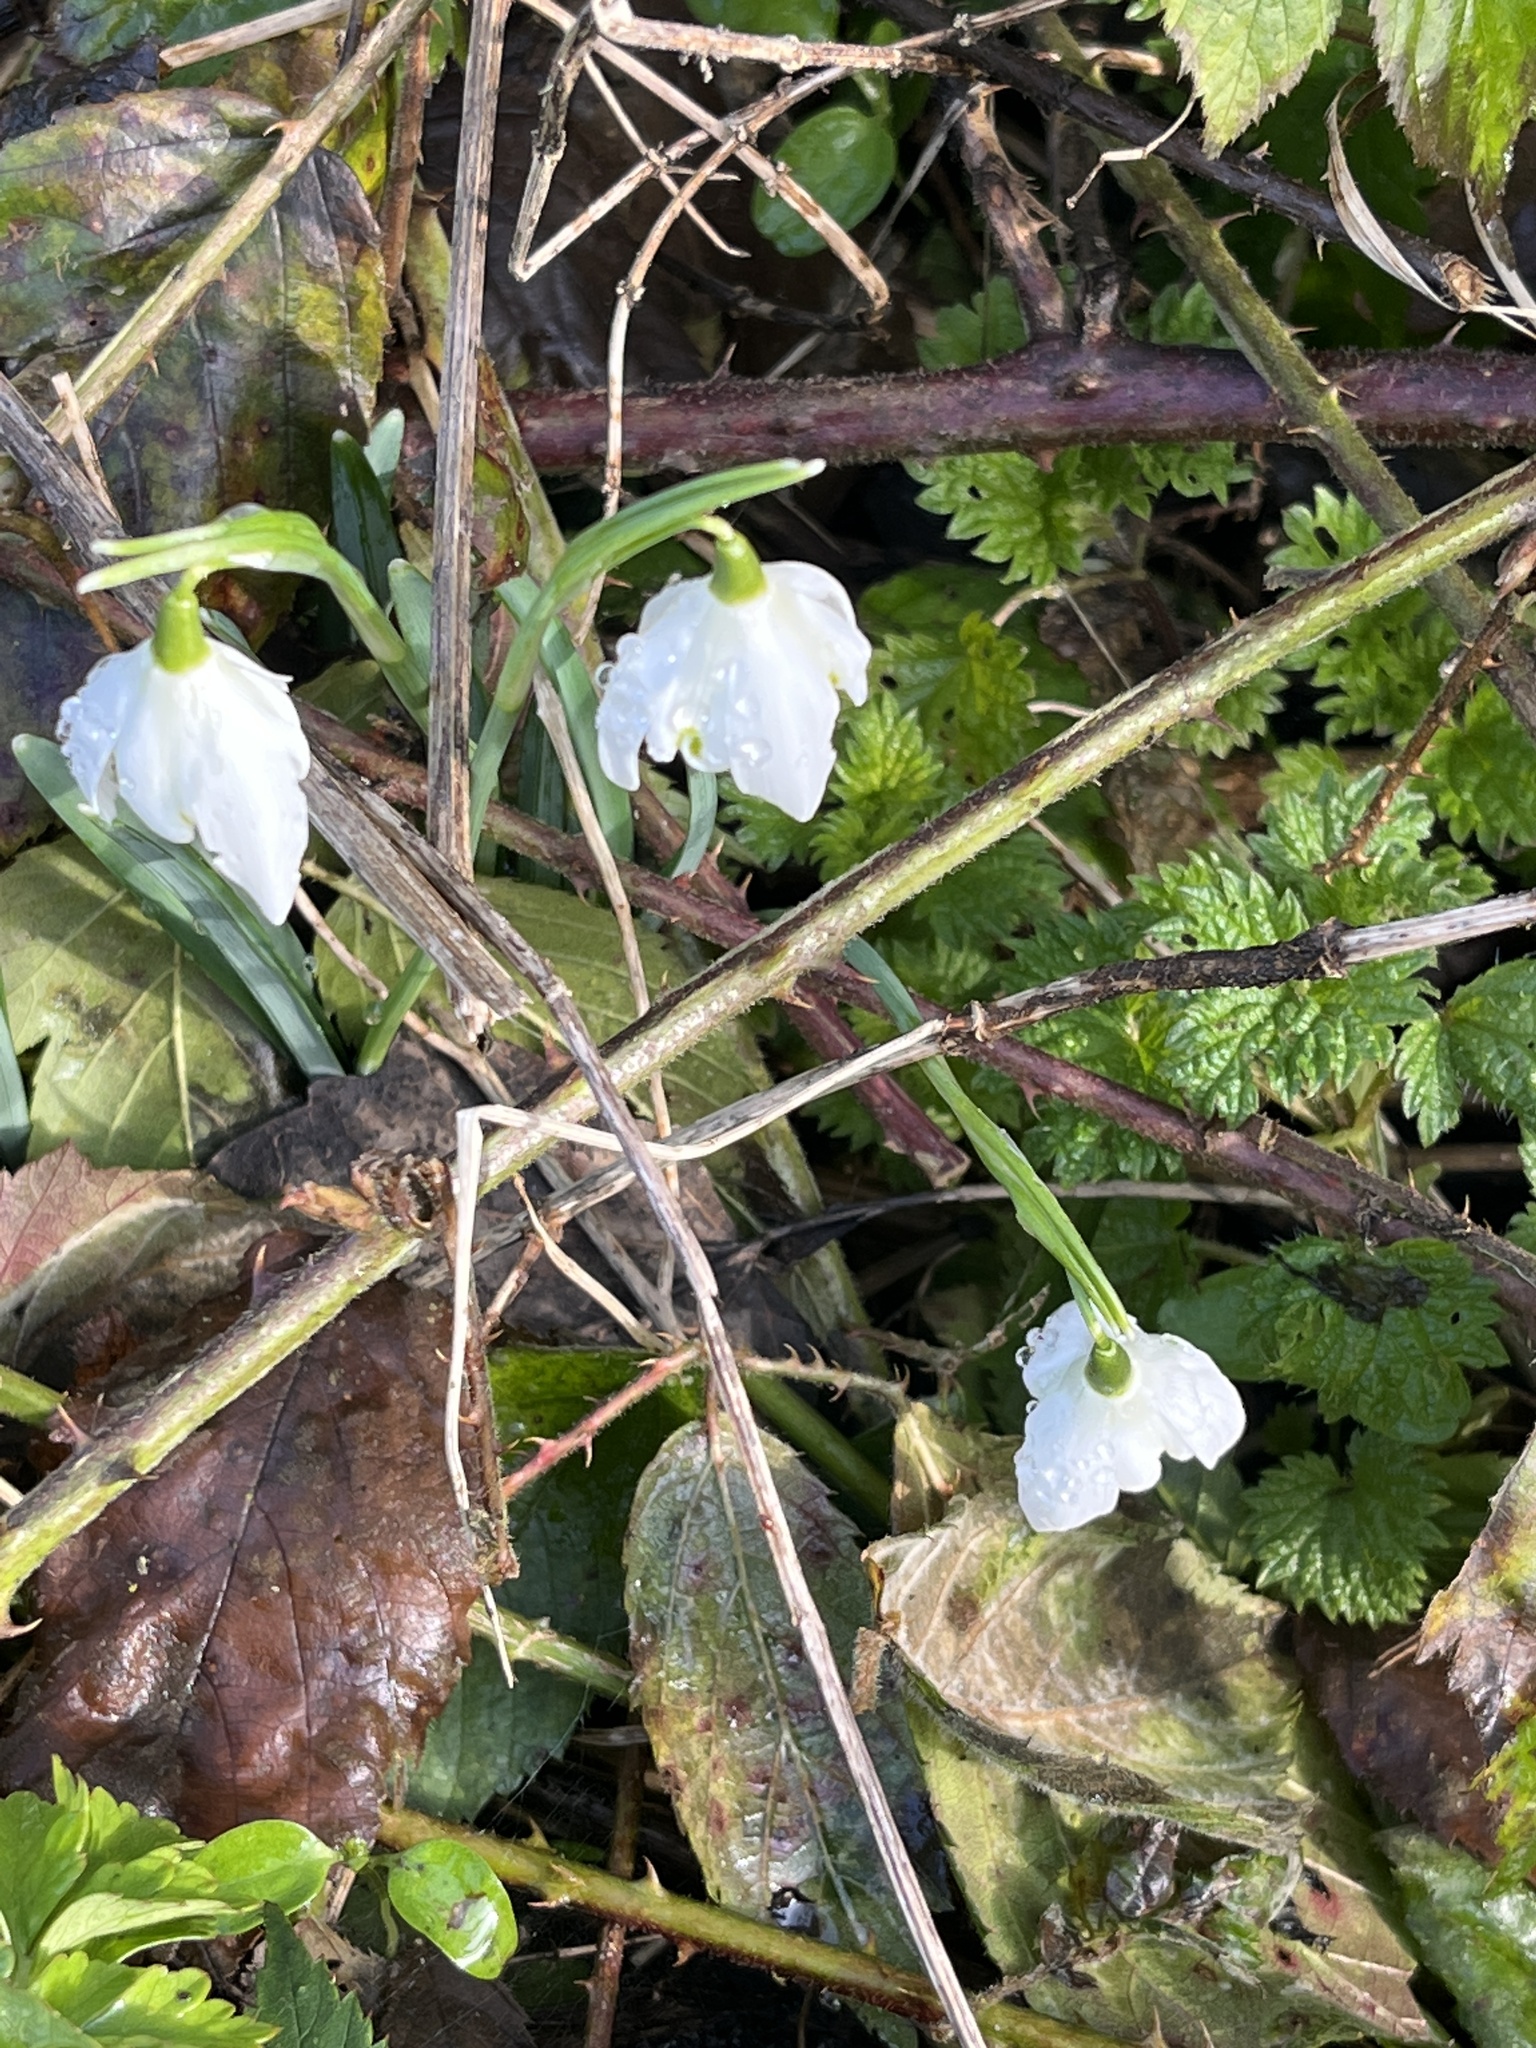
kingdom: Plantae
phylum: Tracheophyta
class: Liliopsida
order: Asparagales
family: Amaryllidaceae
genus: Galanthus
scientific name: Galanthus nivalis
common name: Snowdrop
